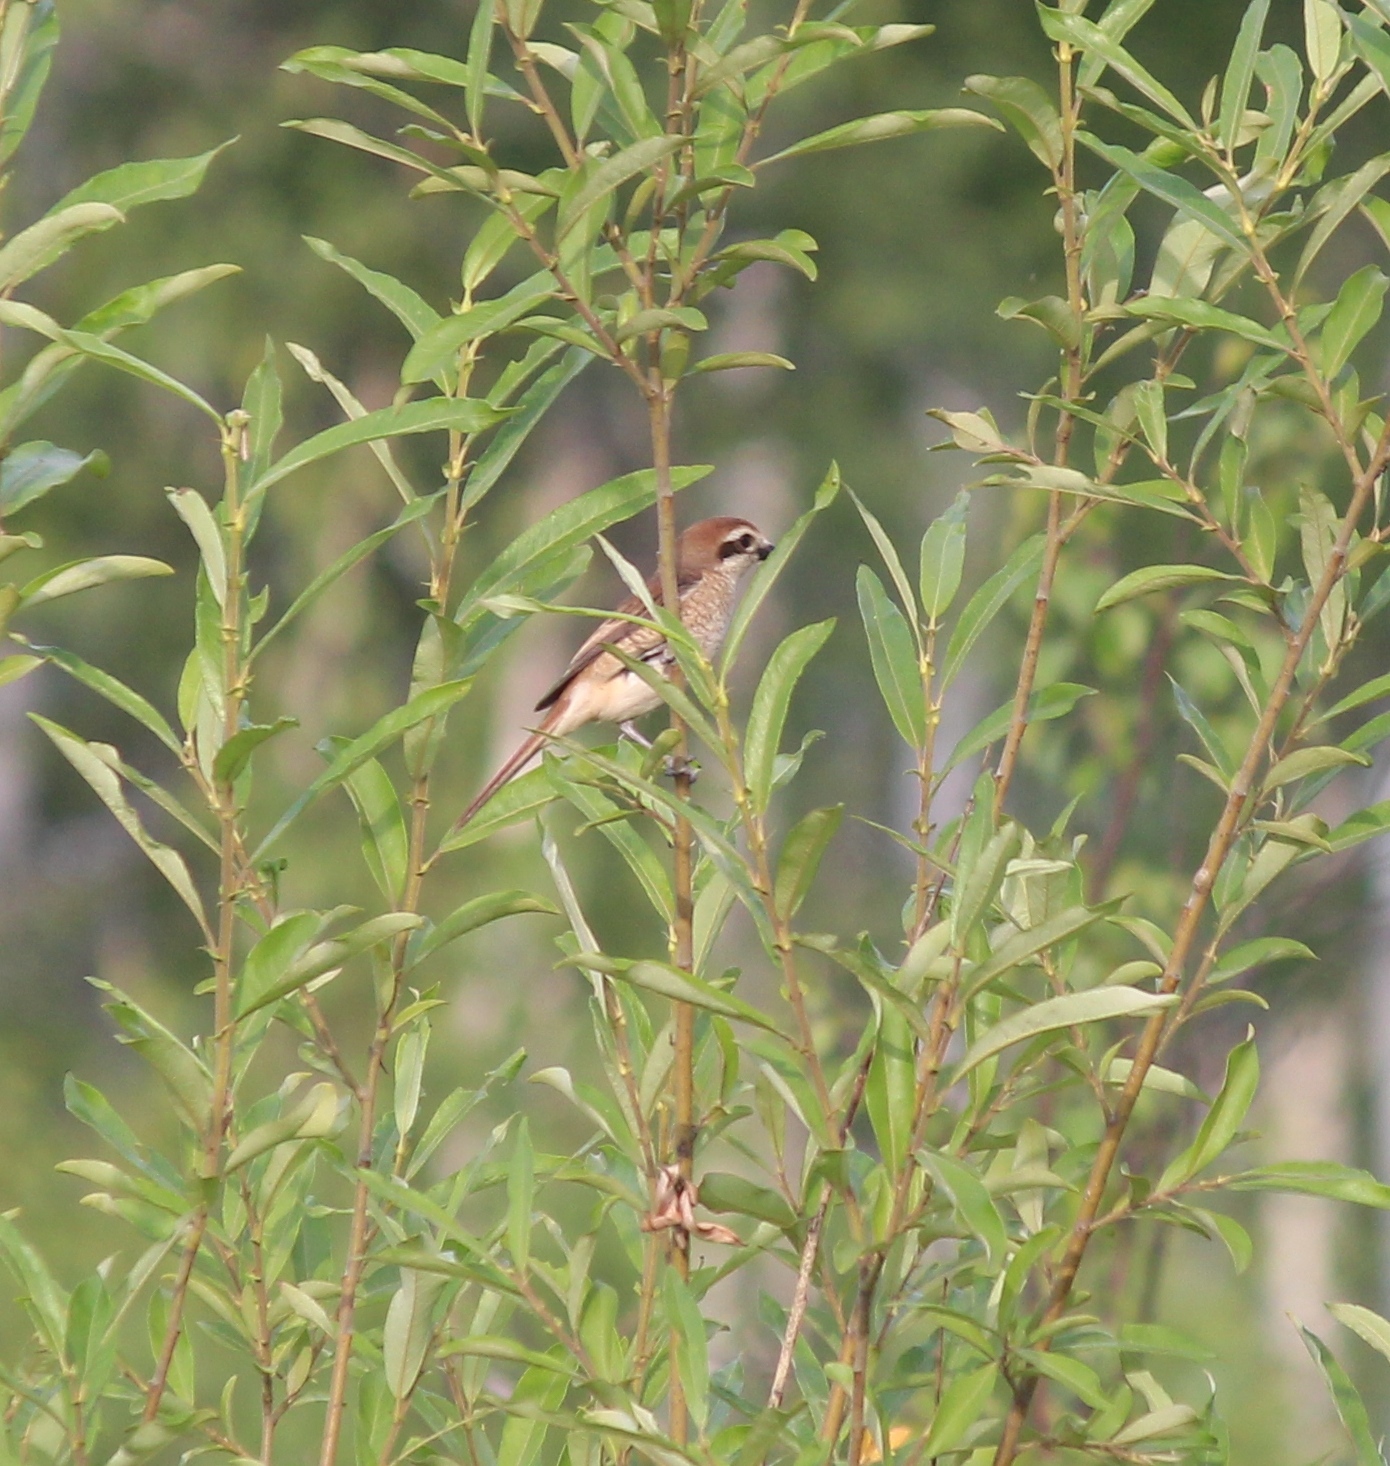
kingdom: Animalia
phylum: Chordata
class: Aves
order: Passeriformes
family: Laniidae
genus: Lanius
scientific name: Lanius cristatus
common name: Brown shrike
